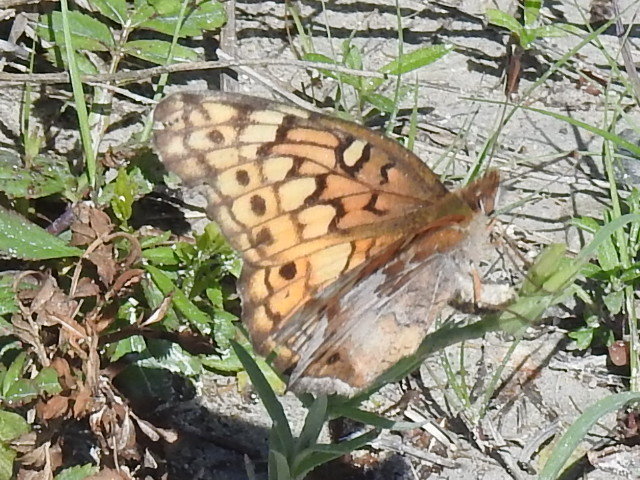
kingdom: Animalia
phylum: Arthropoda
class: Insecta
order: Lepidoptera
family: Nymphalidae
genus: Euptoieta
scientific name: Euptoieta claudia
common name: Variegated fritillary
